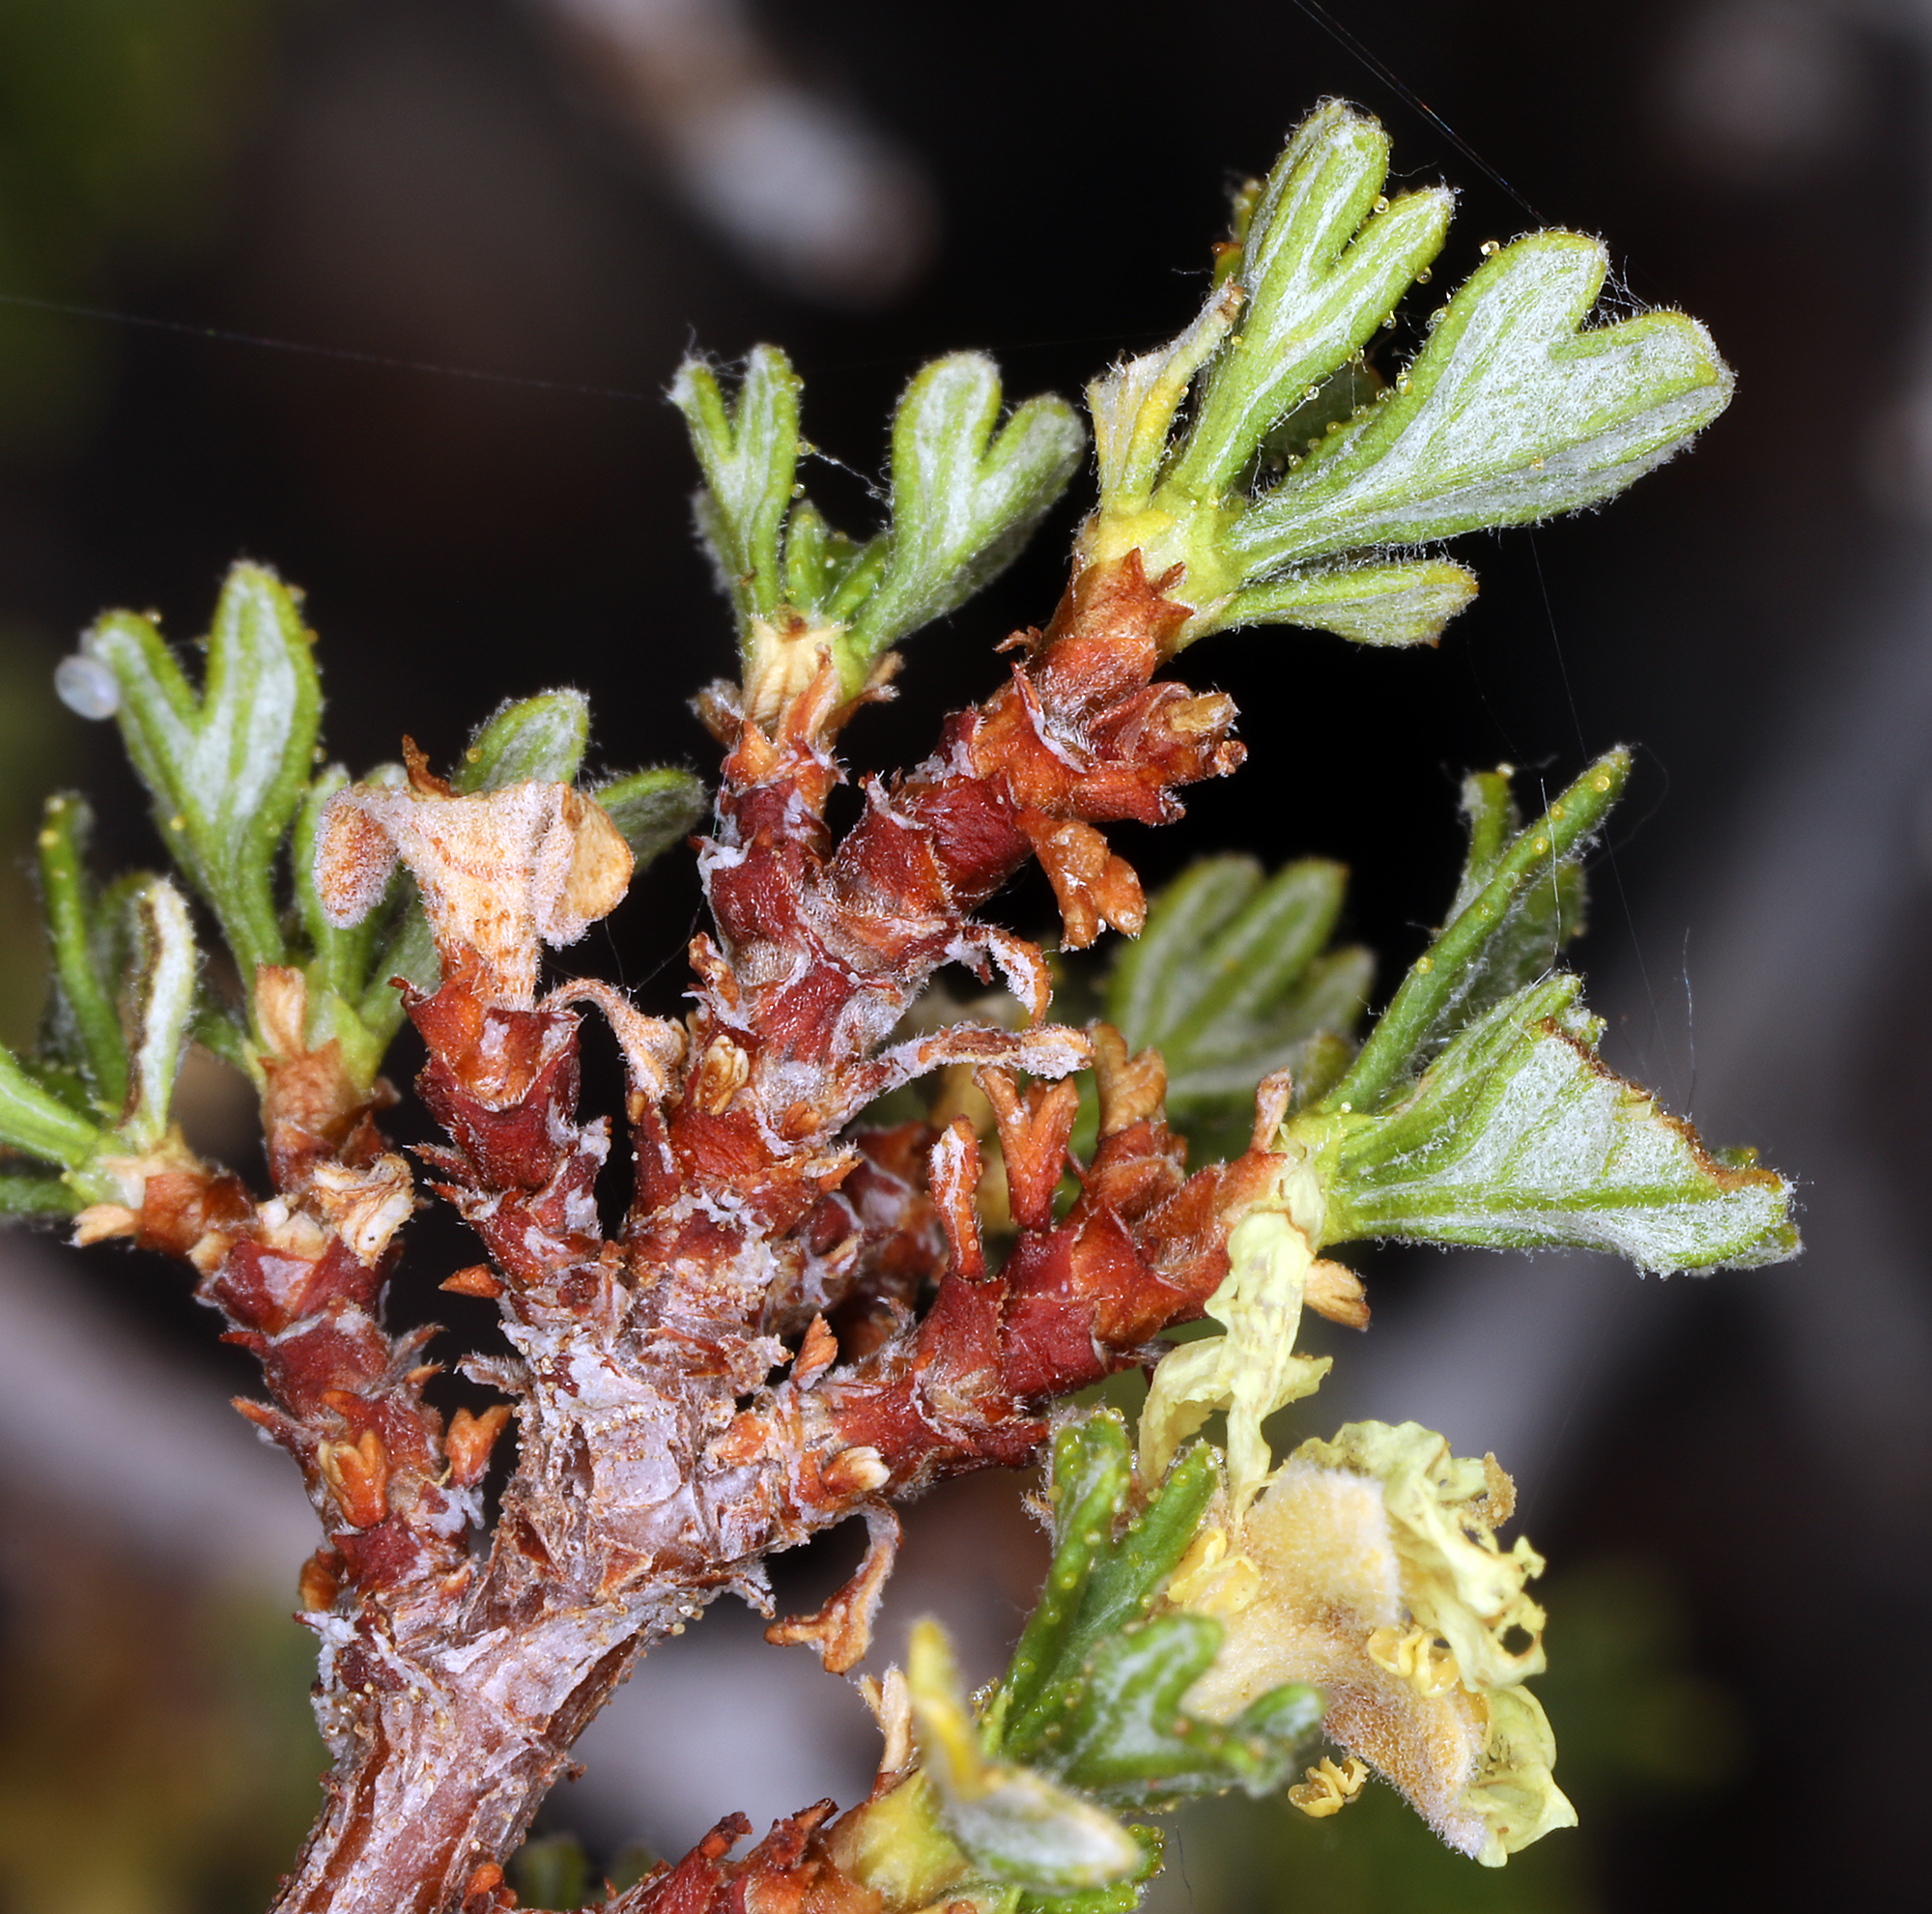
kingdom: Plantae
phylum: Tracheophyta
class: Magnoliopsida
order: Rosales
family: Rosaceae
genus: Purshia
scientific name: Purshia tridentata
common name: Antelope bitterbrush
